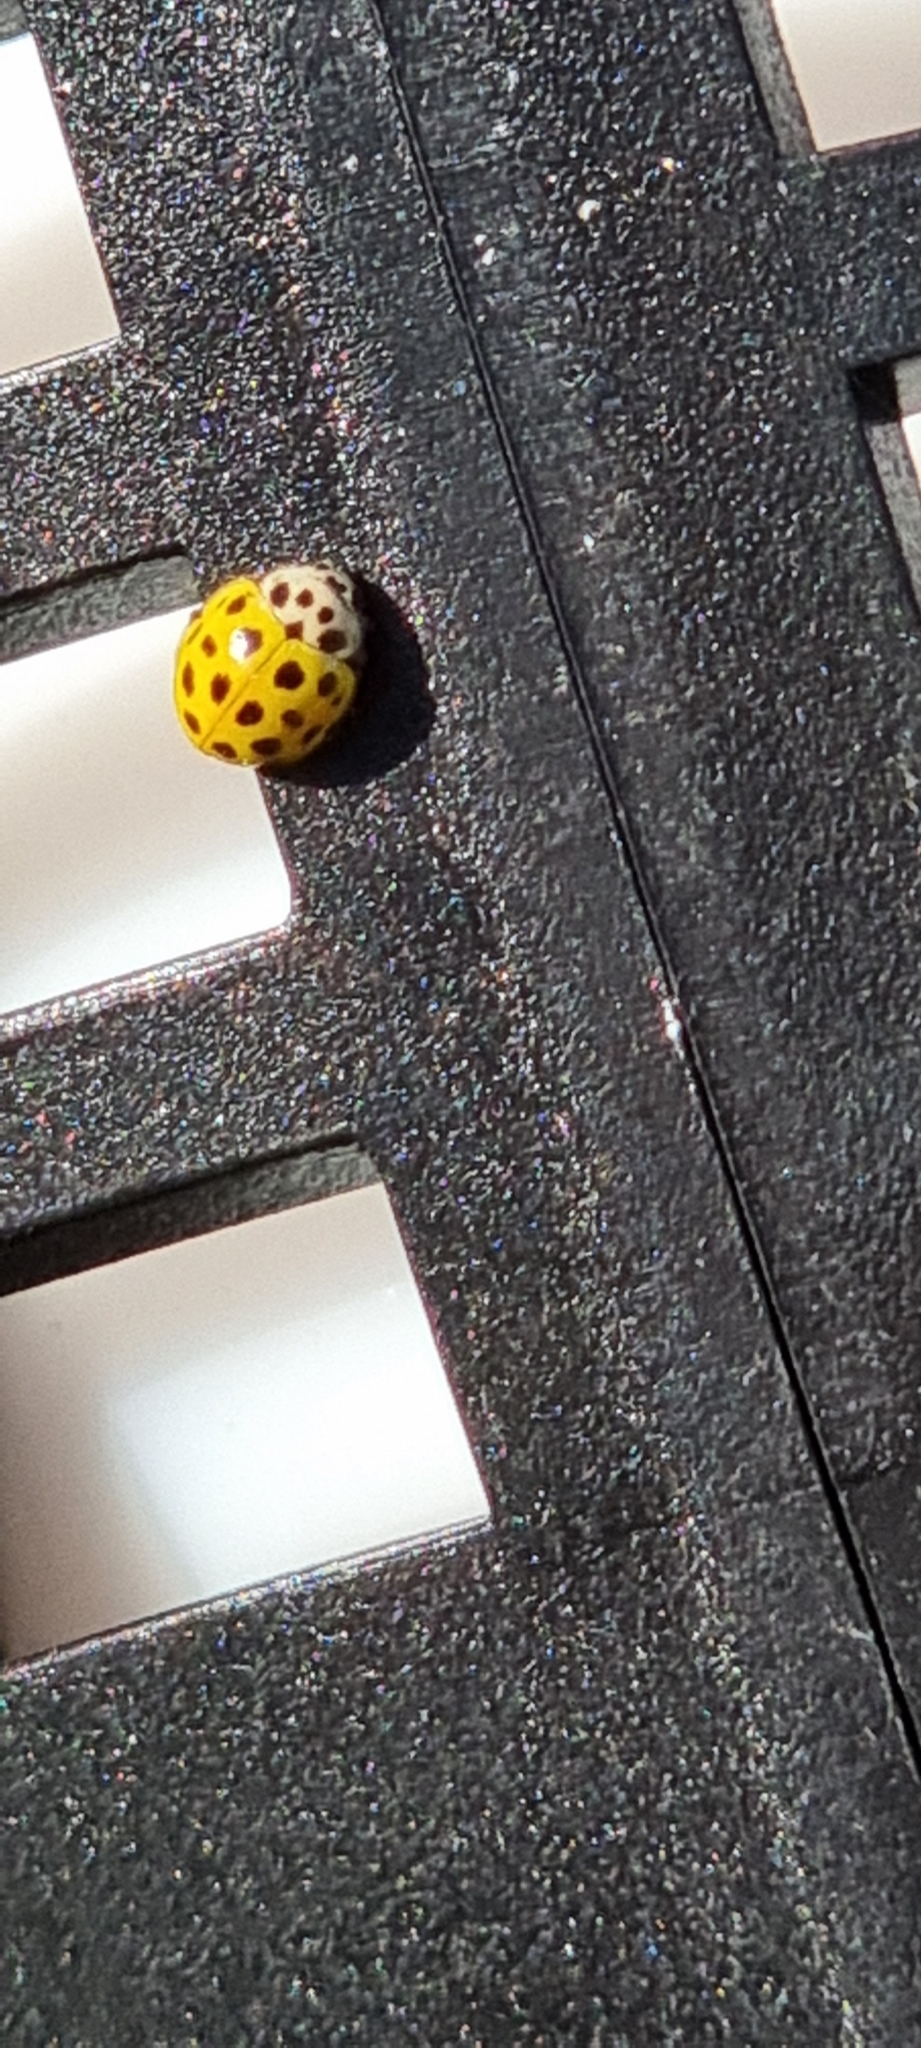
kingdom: Animalia
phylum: Arthropoda
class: Insecta
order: Coleoptera
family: Coccinellidae
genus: Psyllobora
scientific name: Psyllobora vigintiduopunctata
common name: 22-spot ladybird
